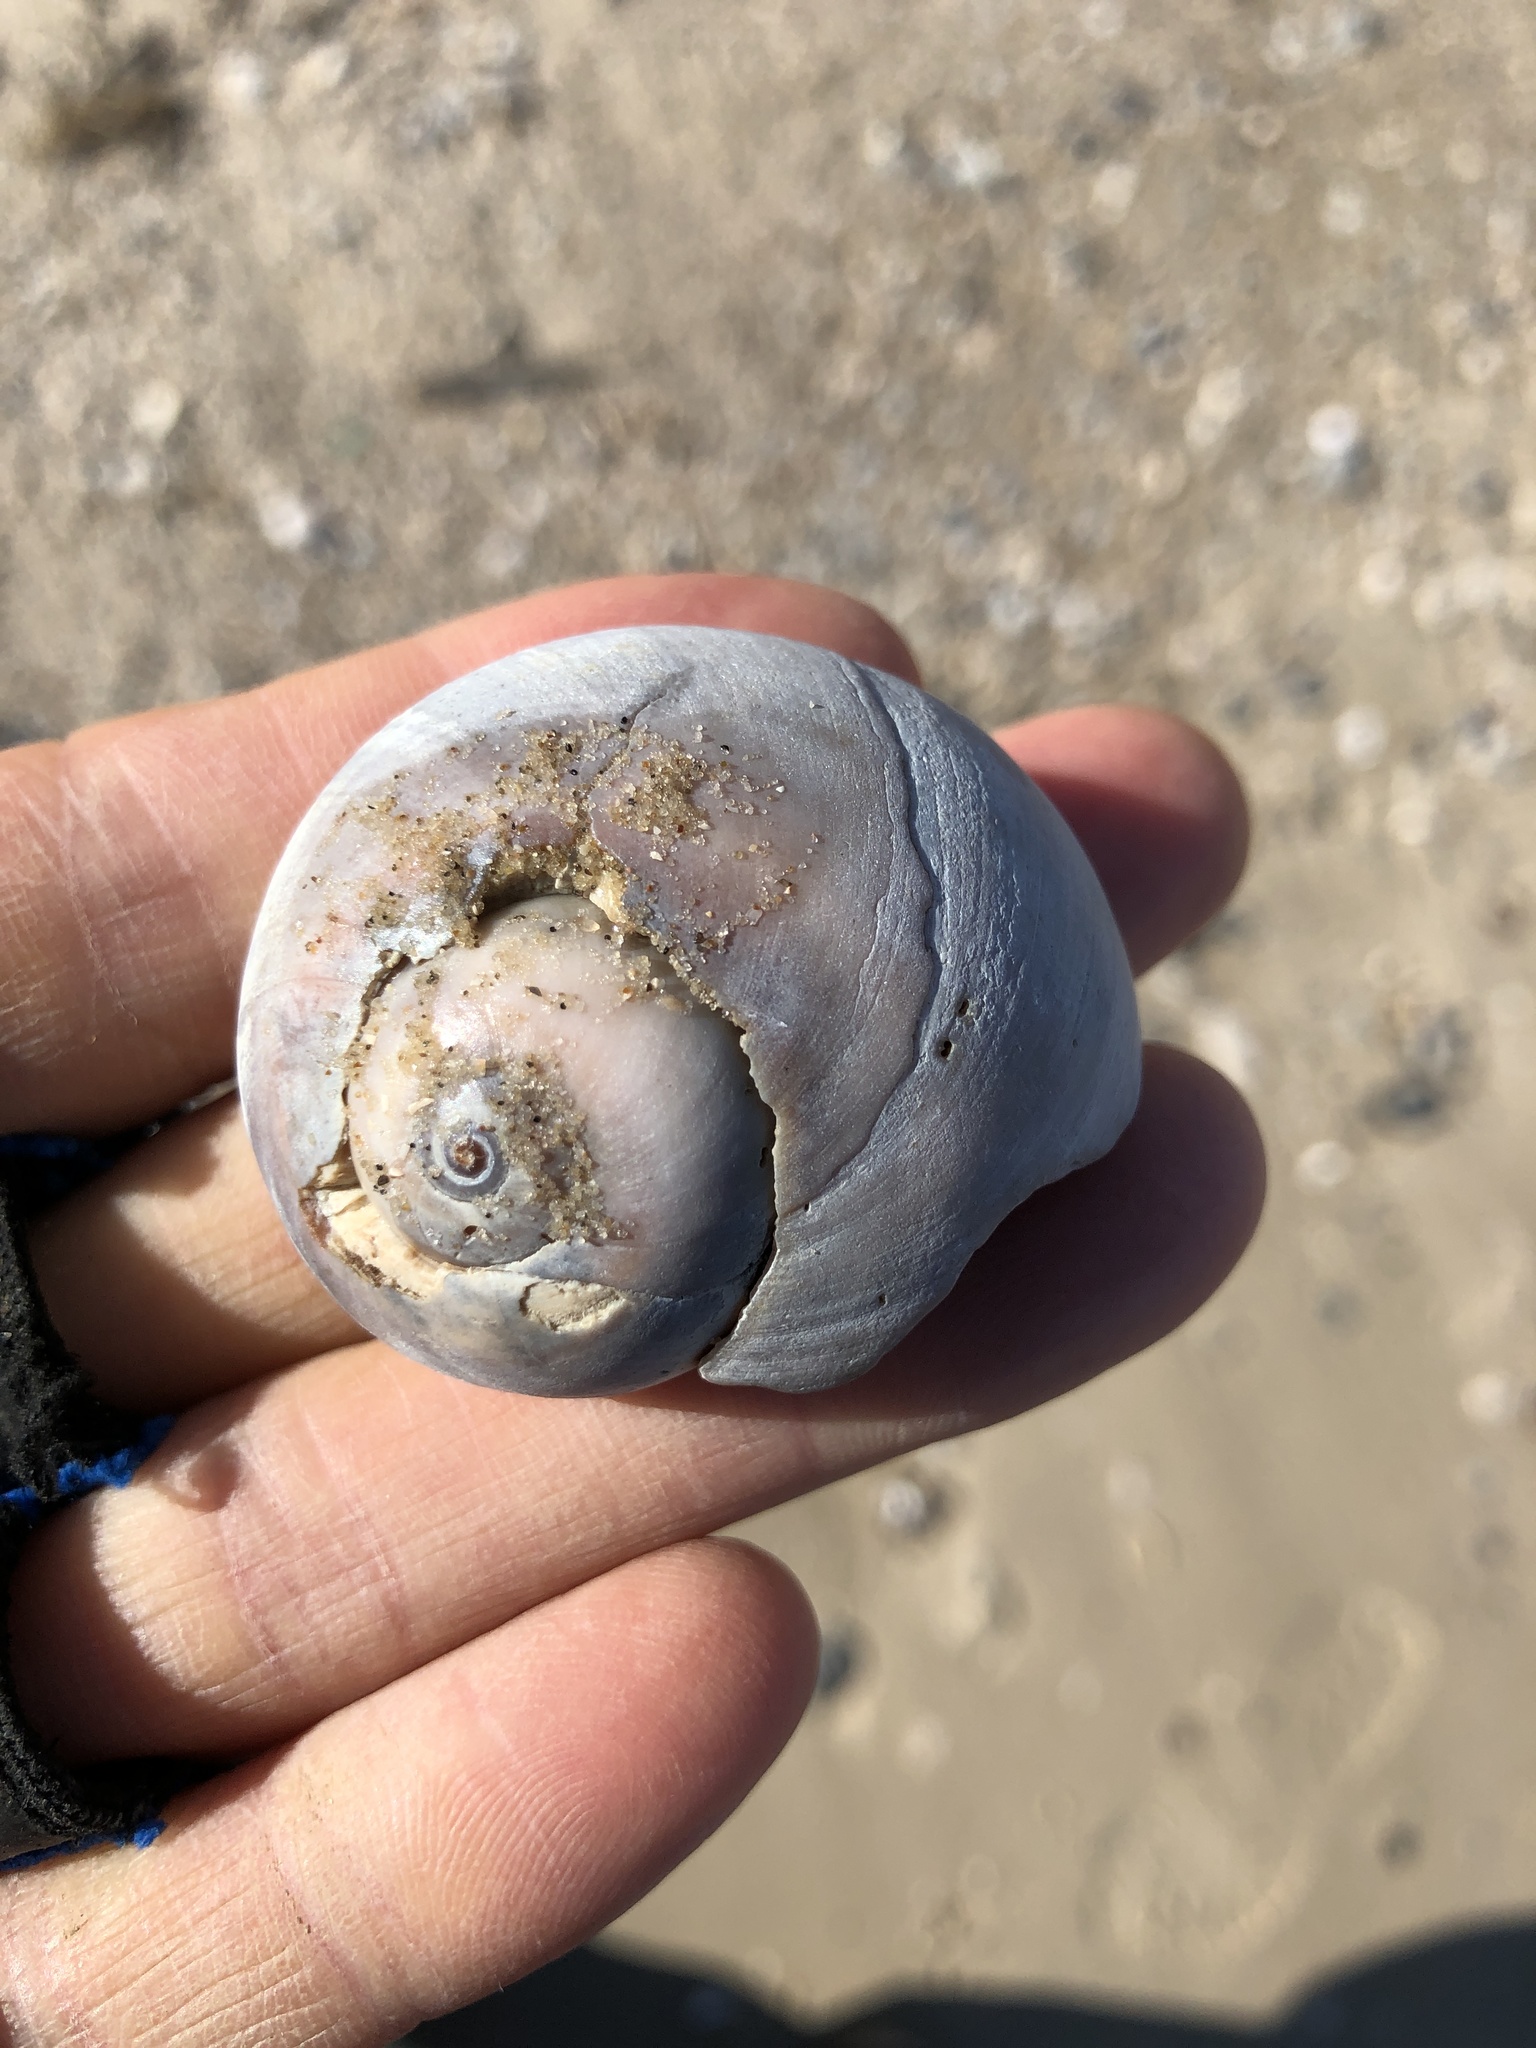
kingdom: Animalia
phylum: Mollusca
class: Gastropoda
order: Littorinimorpha
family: Naticidae
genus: Neverita
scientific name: Neverita delessertiana
